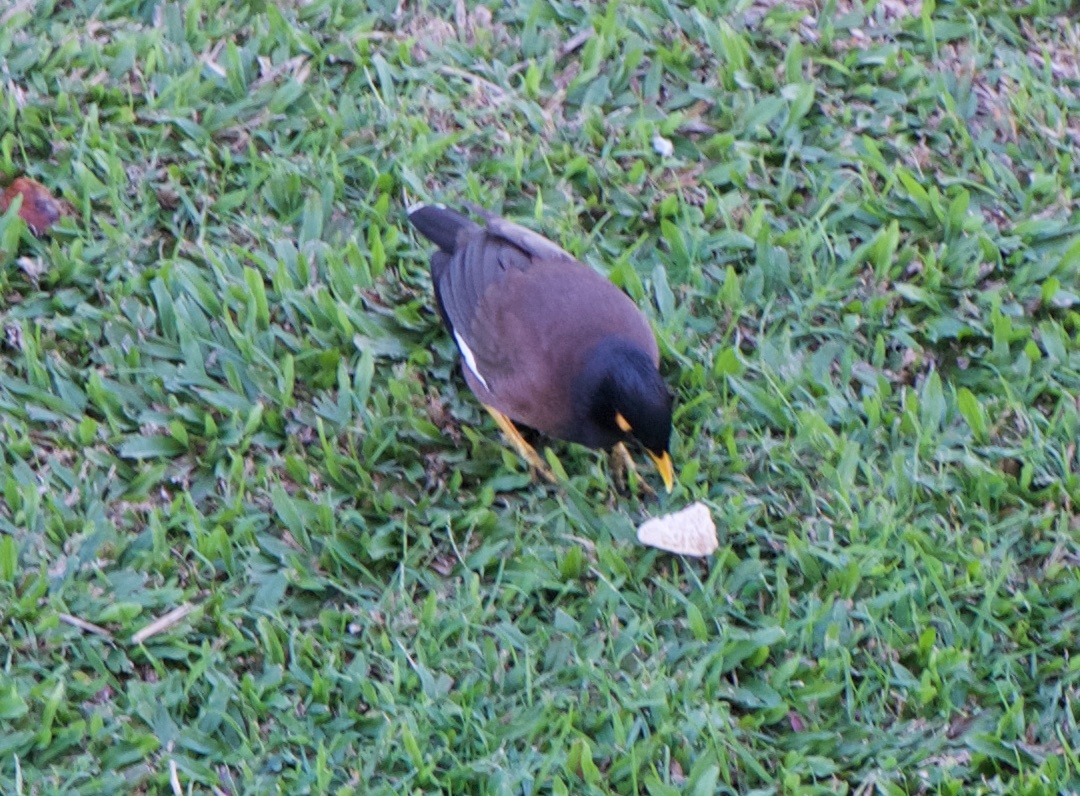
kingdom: Animalia
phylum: Chordata
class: Aves
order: Passeriformes
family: Sturnidae
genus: Acridotheres
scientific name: Acridotheres tristis
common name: Common myna
